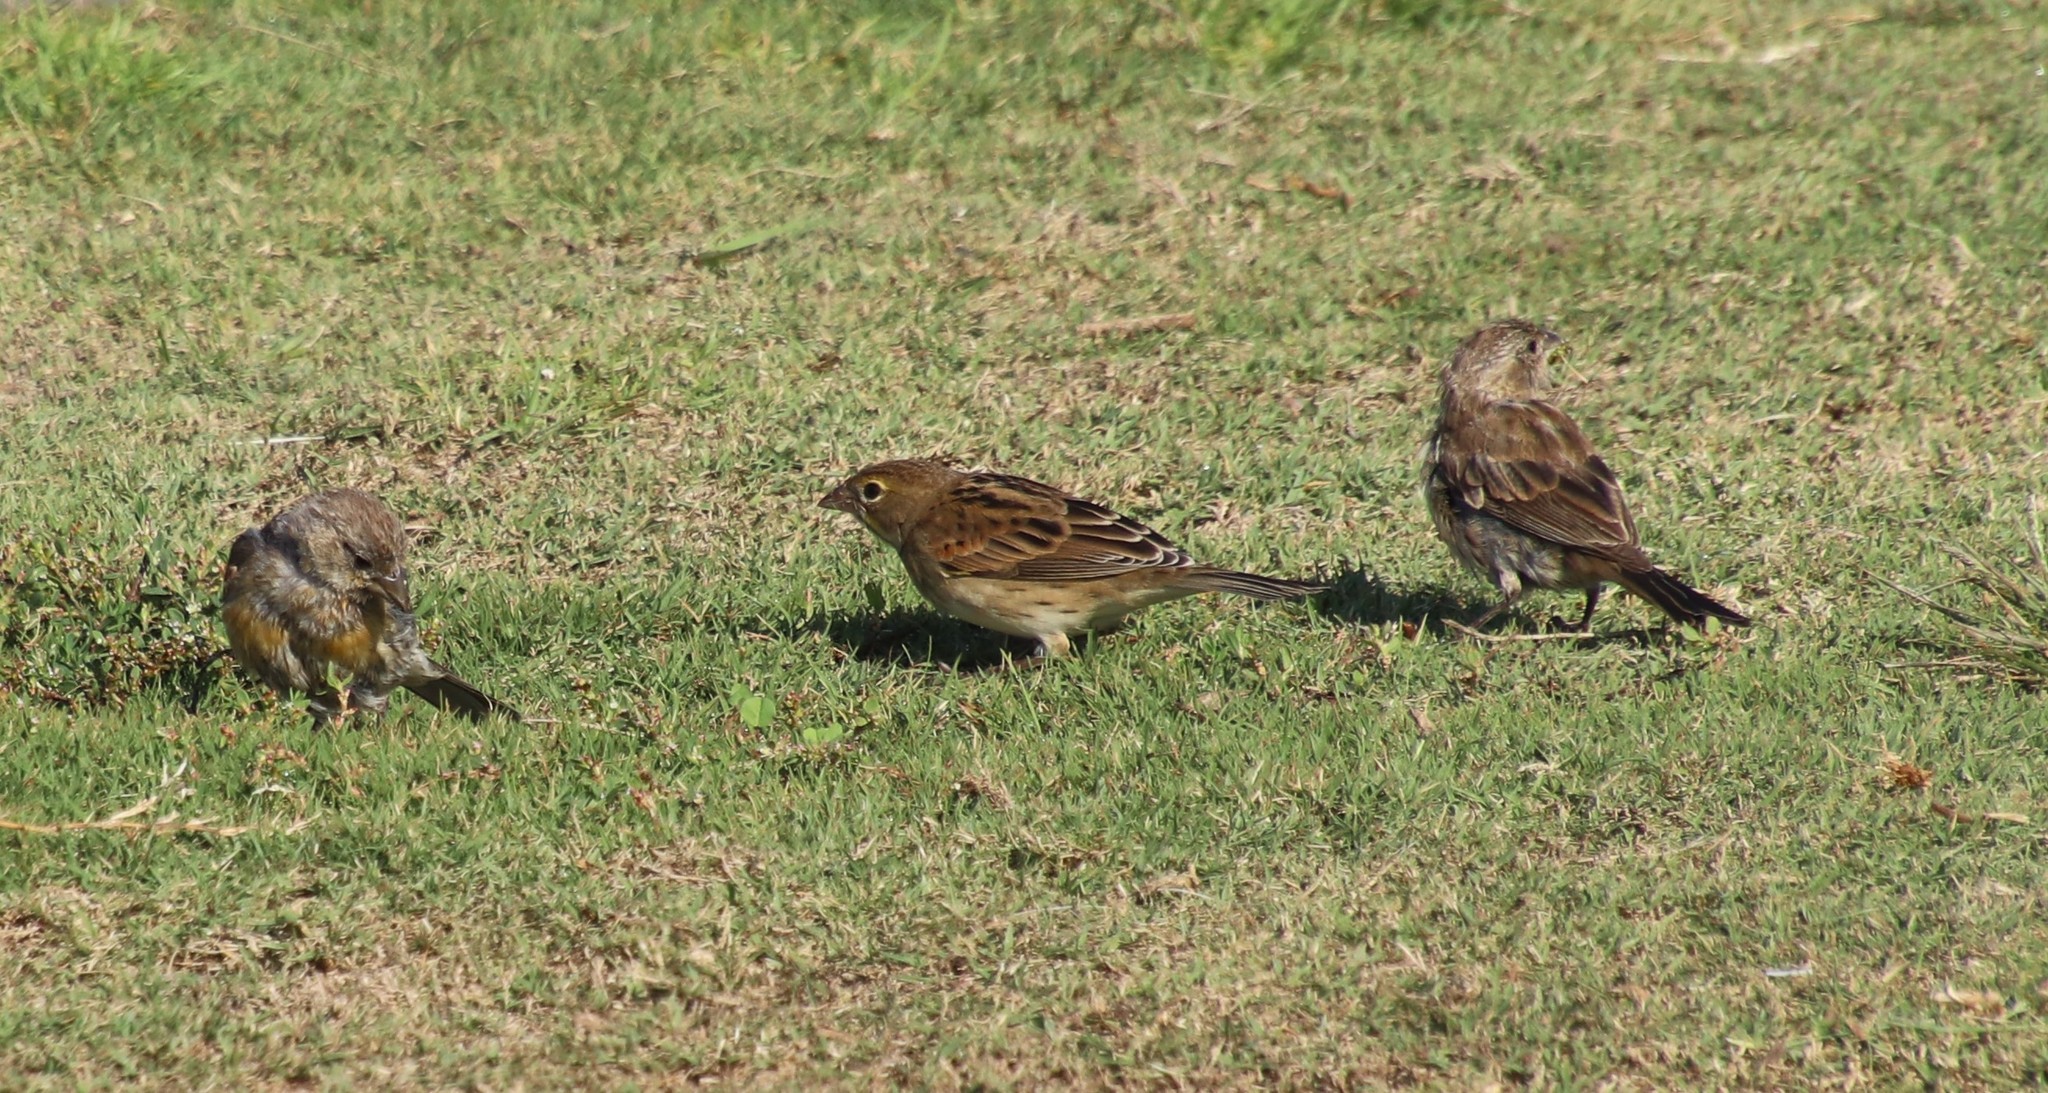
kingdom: Animalia
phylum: Chordata
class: Aves
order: Passeriformes
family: Cardinalidae
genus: Spiza
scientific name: Spiza americana
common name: Dickcissel
